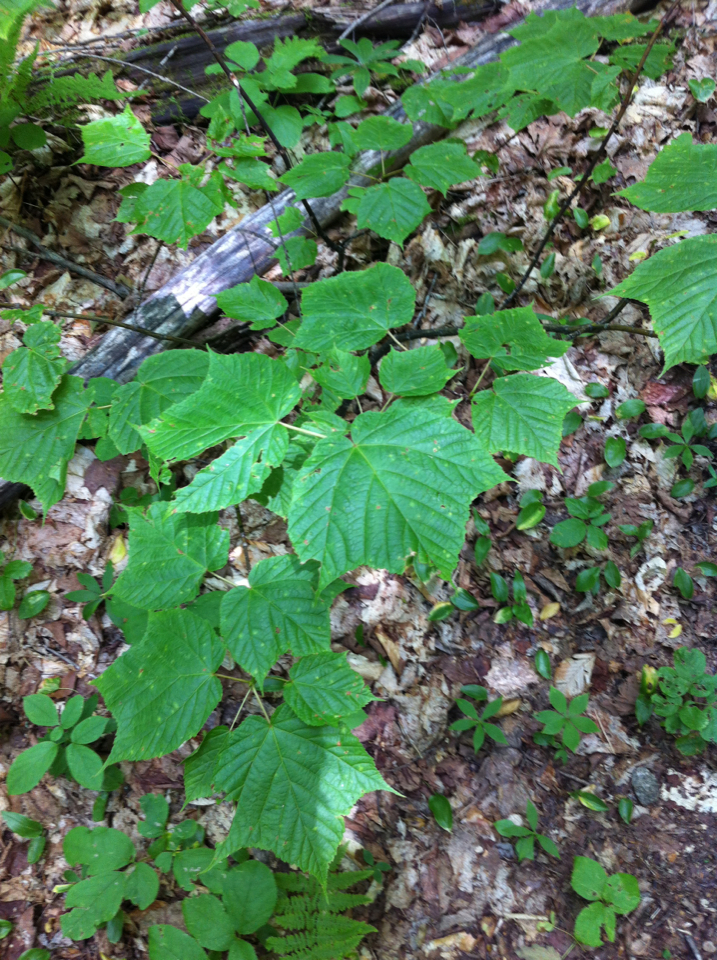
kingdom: Plantae
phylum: Tracheophyta
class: Magnoliopsida
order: Sapindales
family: Sapindaceae
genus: Acer
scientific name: Acer pensylvanicum
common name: Moosewood
